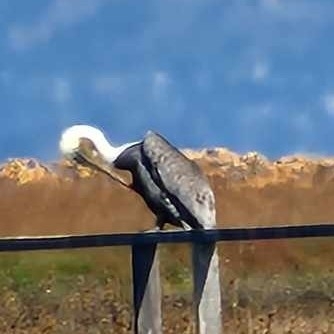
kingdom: Animalia
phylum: Chordata
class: Aves
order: Pelecaniformes
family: Pelecanidae
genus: Pelecanus
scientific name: Pelecanus occidentalis
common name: Brown pelican
